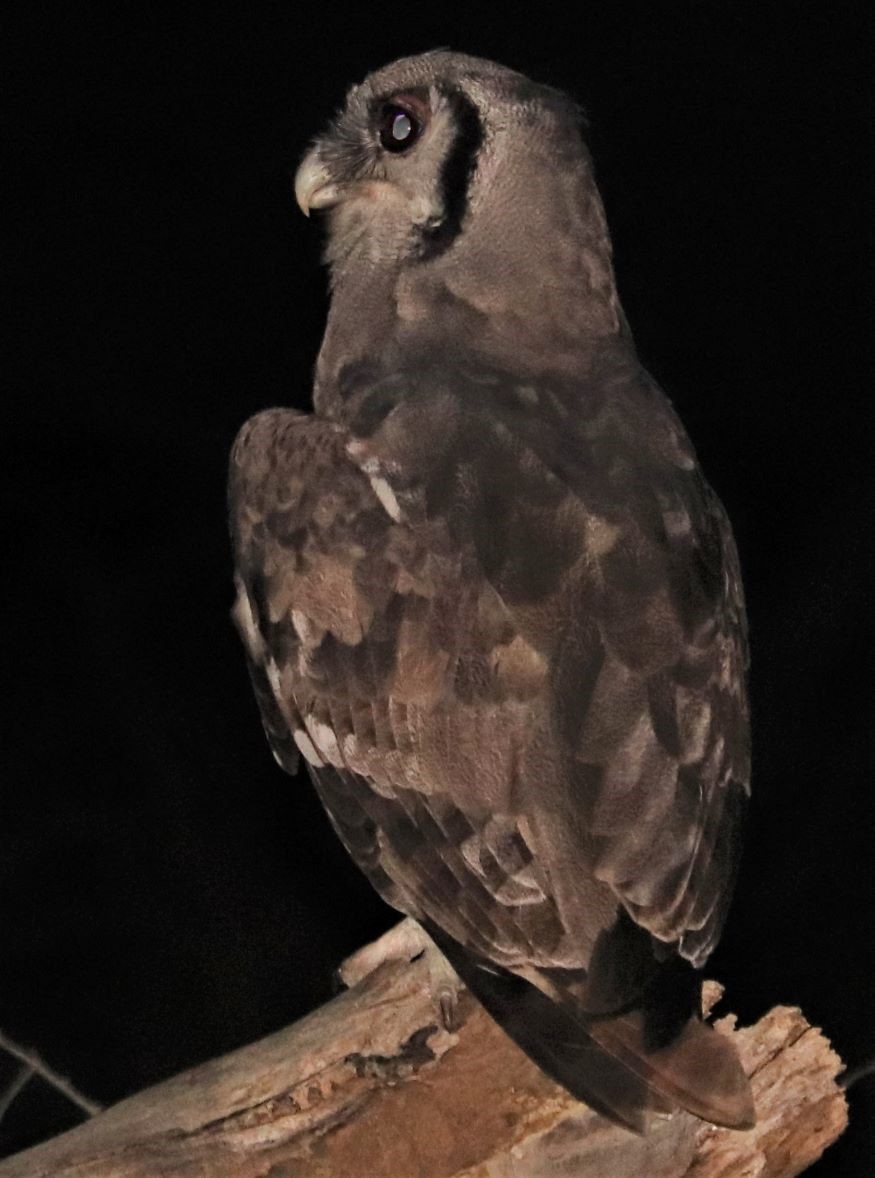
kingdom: Animalia
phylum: Chordata
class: Aves
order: Strigiformes
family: Strigidae
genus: Bubo
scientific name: Bubo lacteus
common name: Verreaux's eagle-owl
